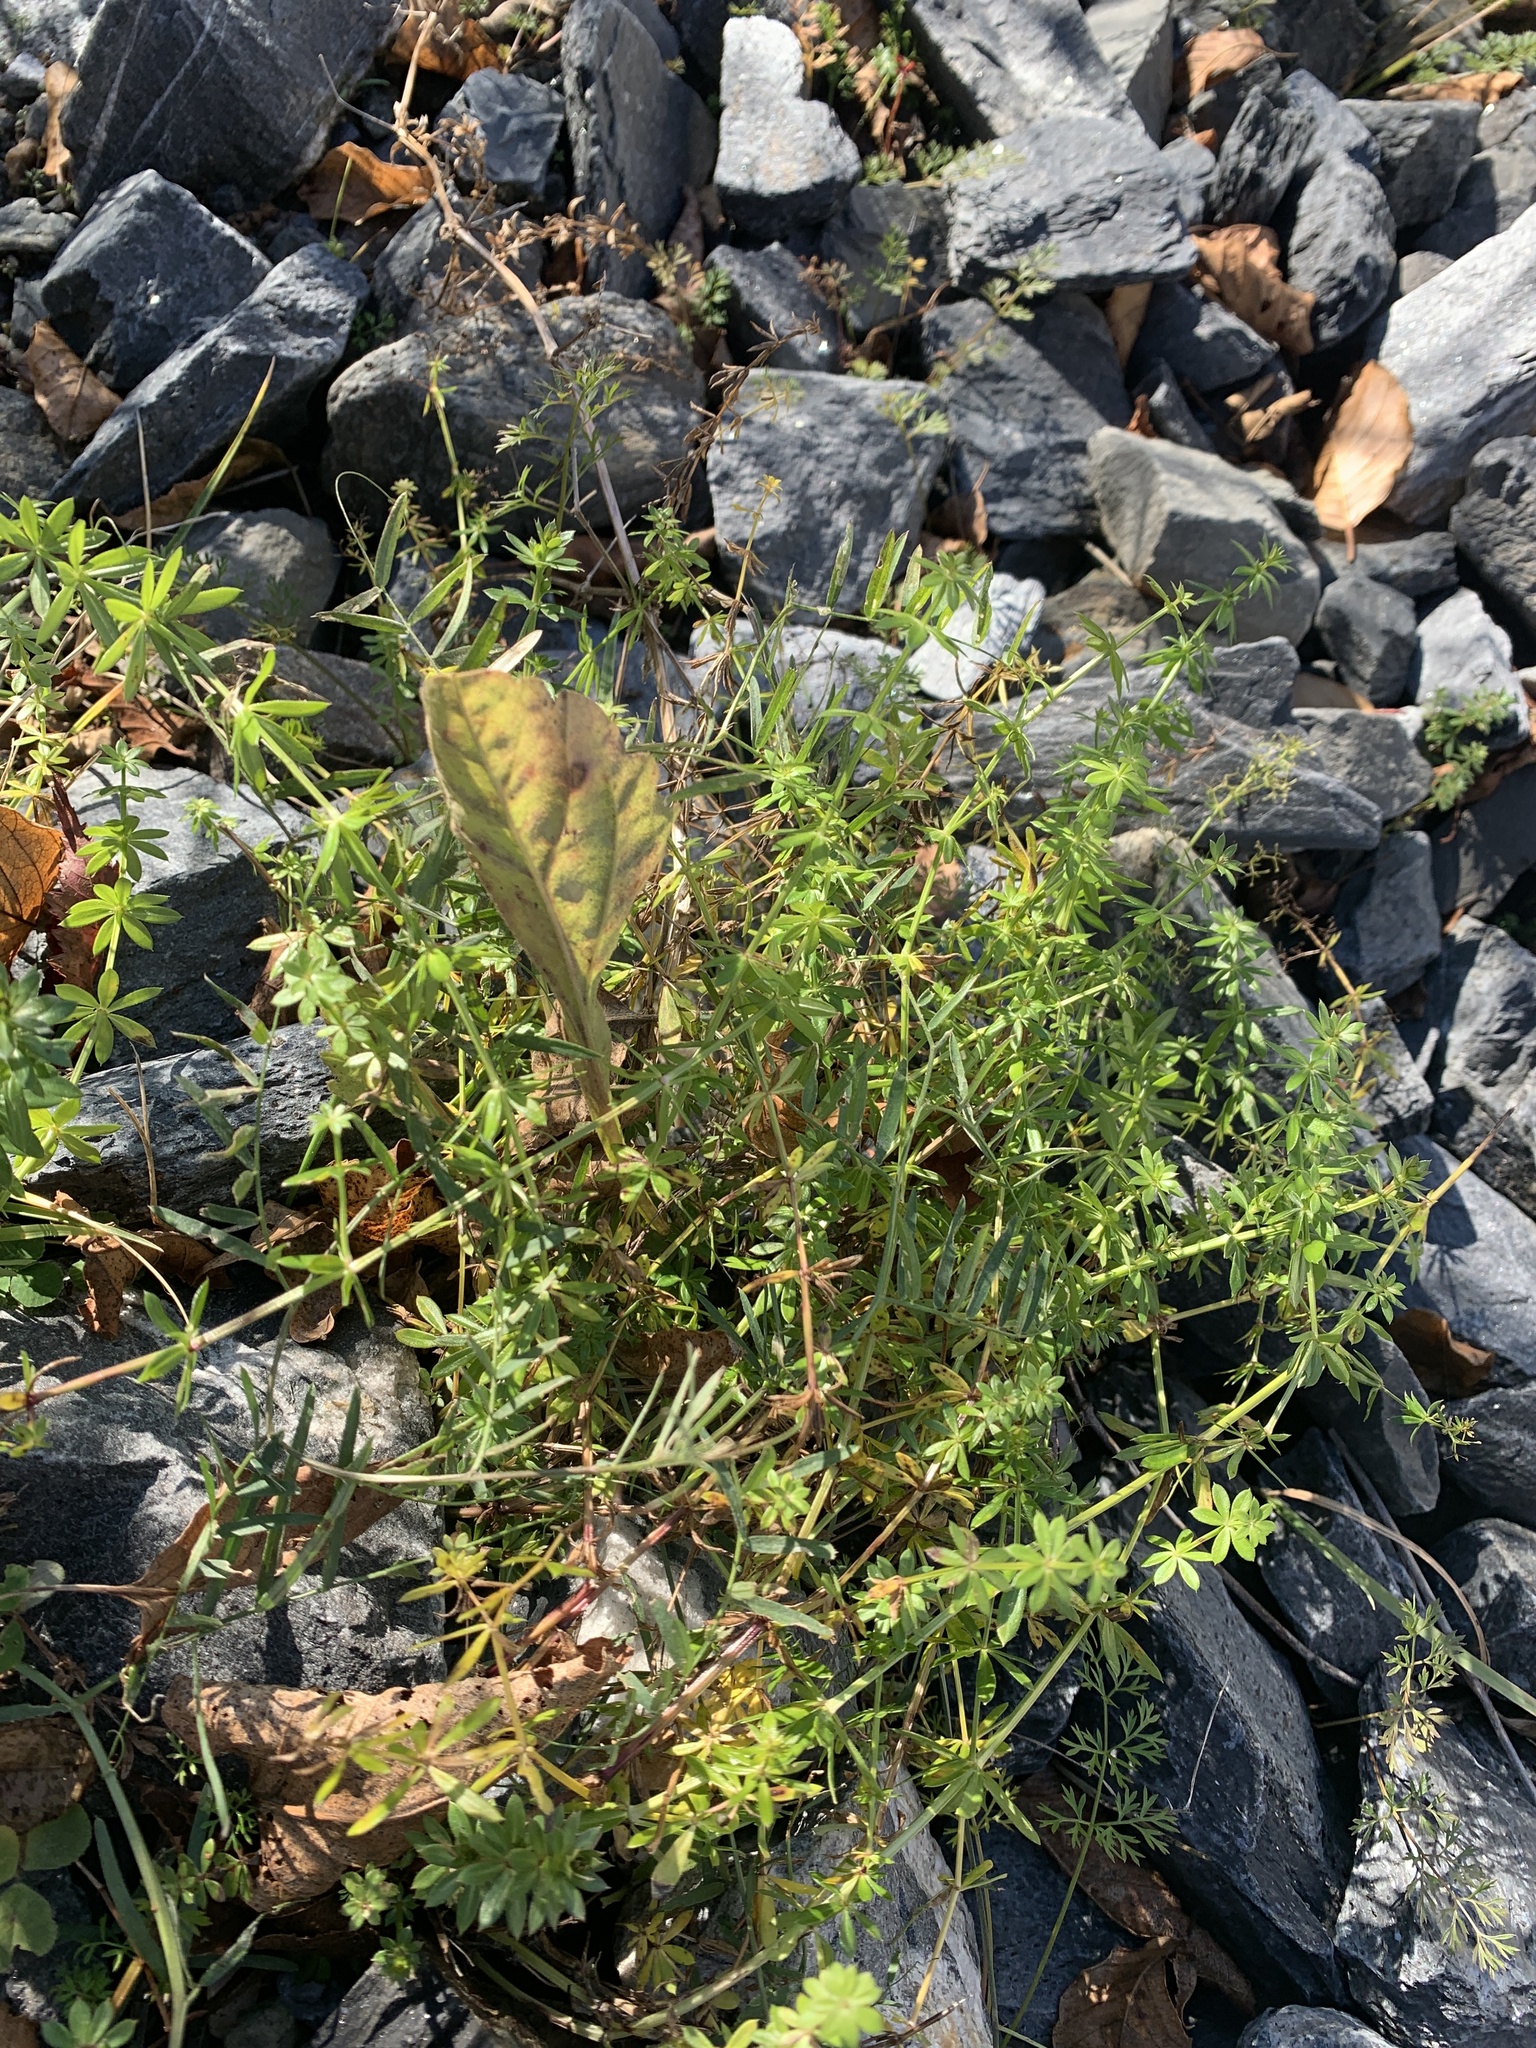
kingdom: Plantae
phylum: Tracheophyta
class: Magnoliopsida
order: Gentianales
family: Rubiaceae
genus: Galium
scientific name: Galium mollugo
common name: Hedge bedstraw
